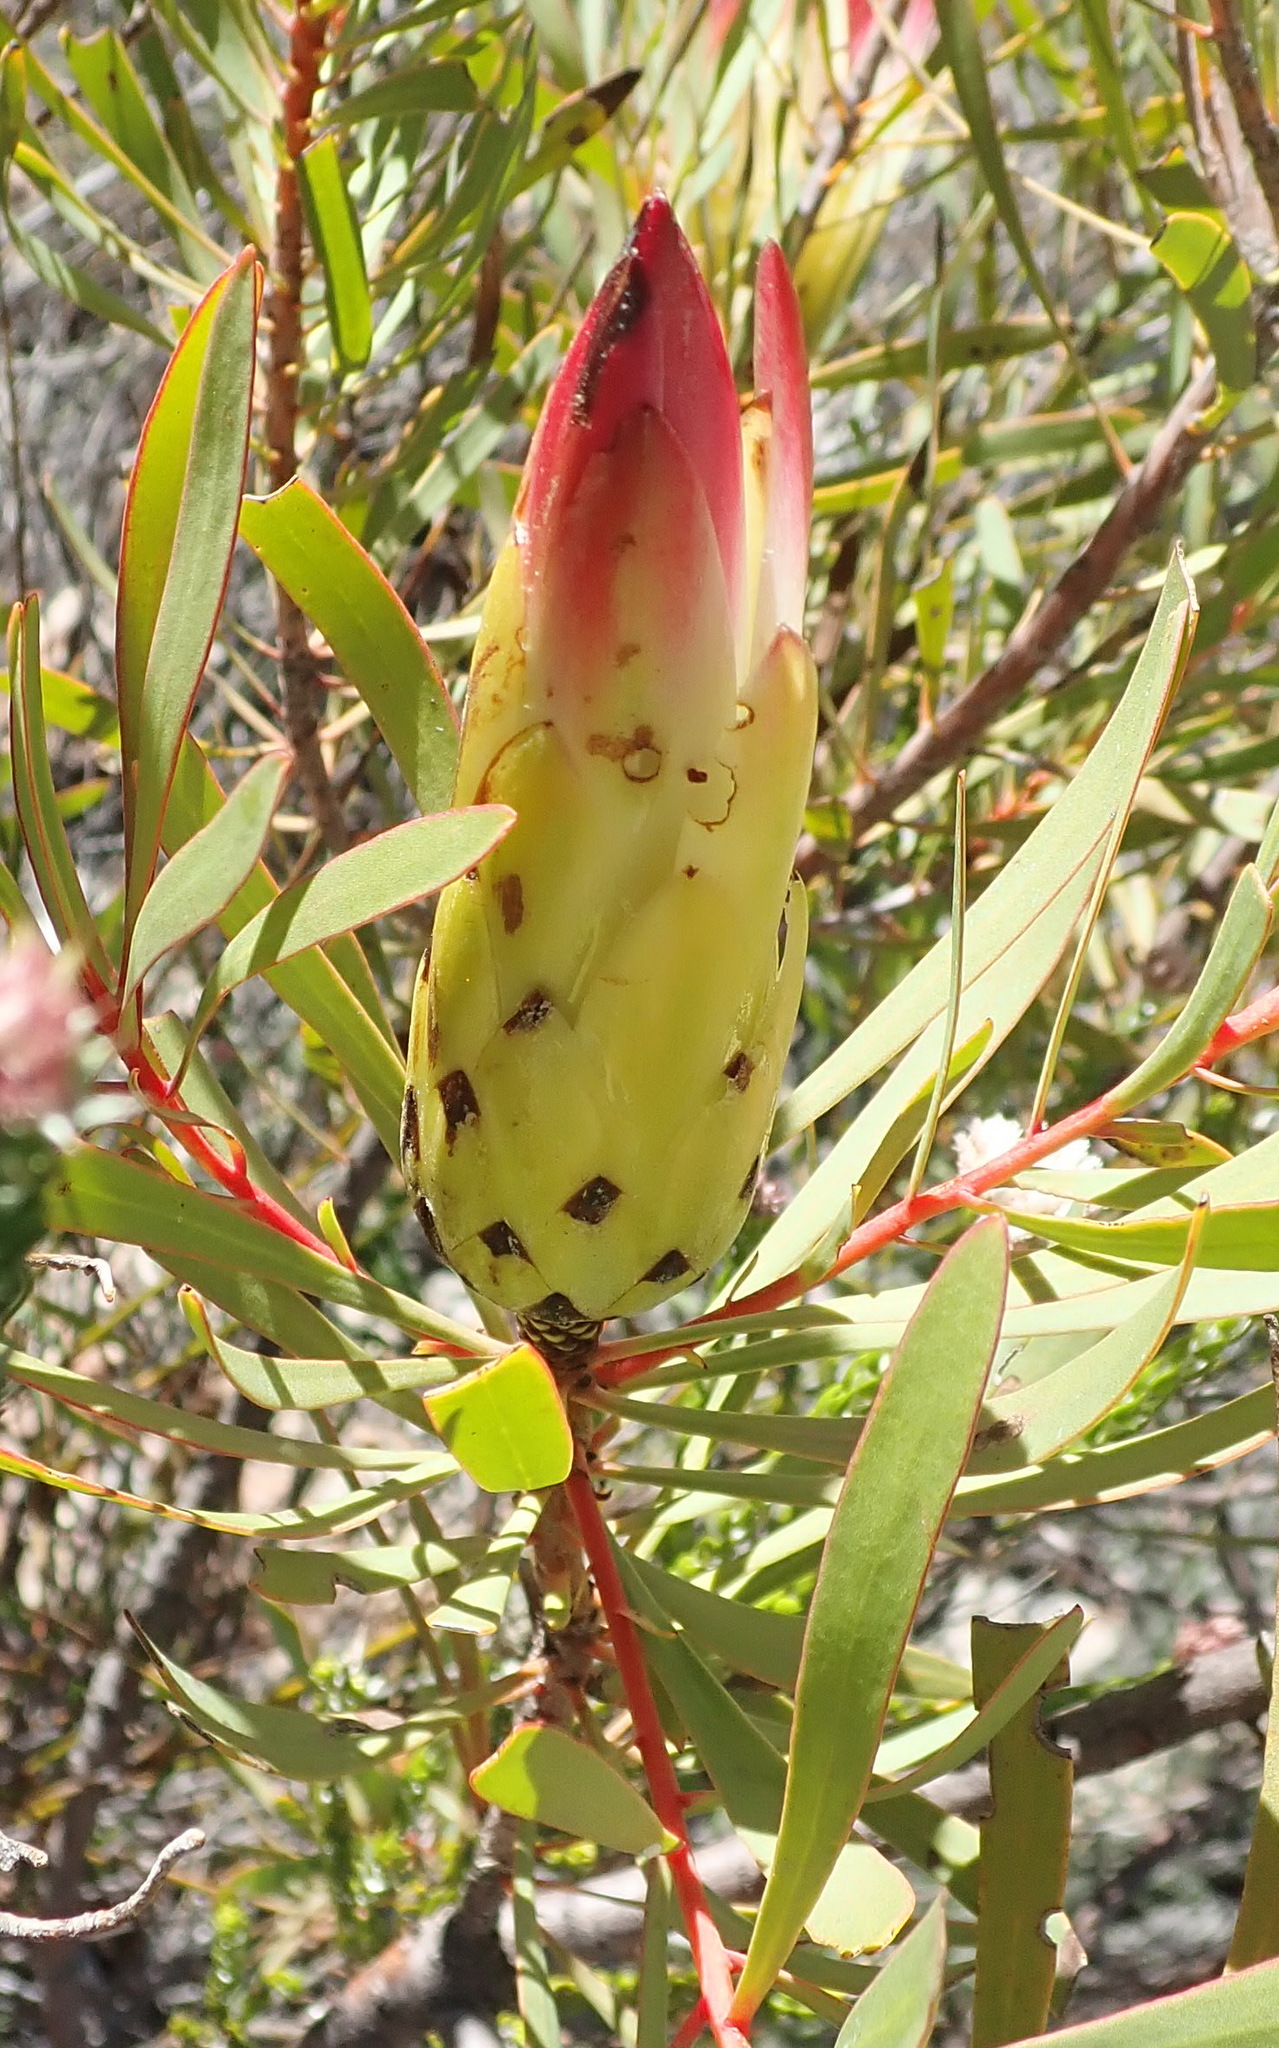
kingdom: Plantae
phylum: Tracheophyta
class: Magnoliopsida
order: Proteales
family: Proteaceae
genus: Protea
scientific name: Protea repens
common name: Sugarbush
